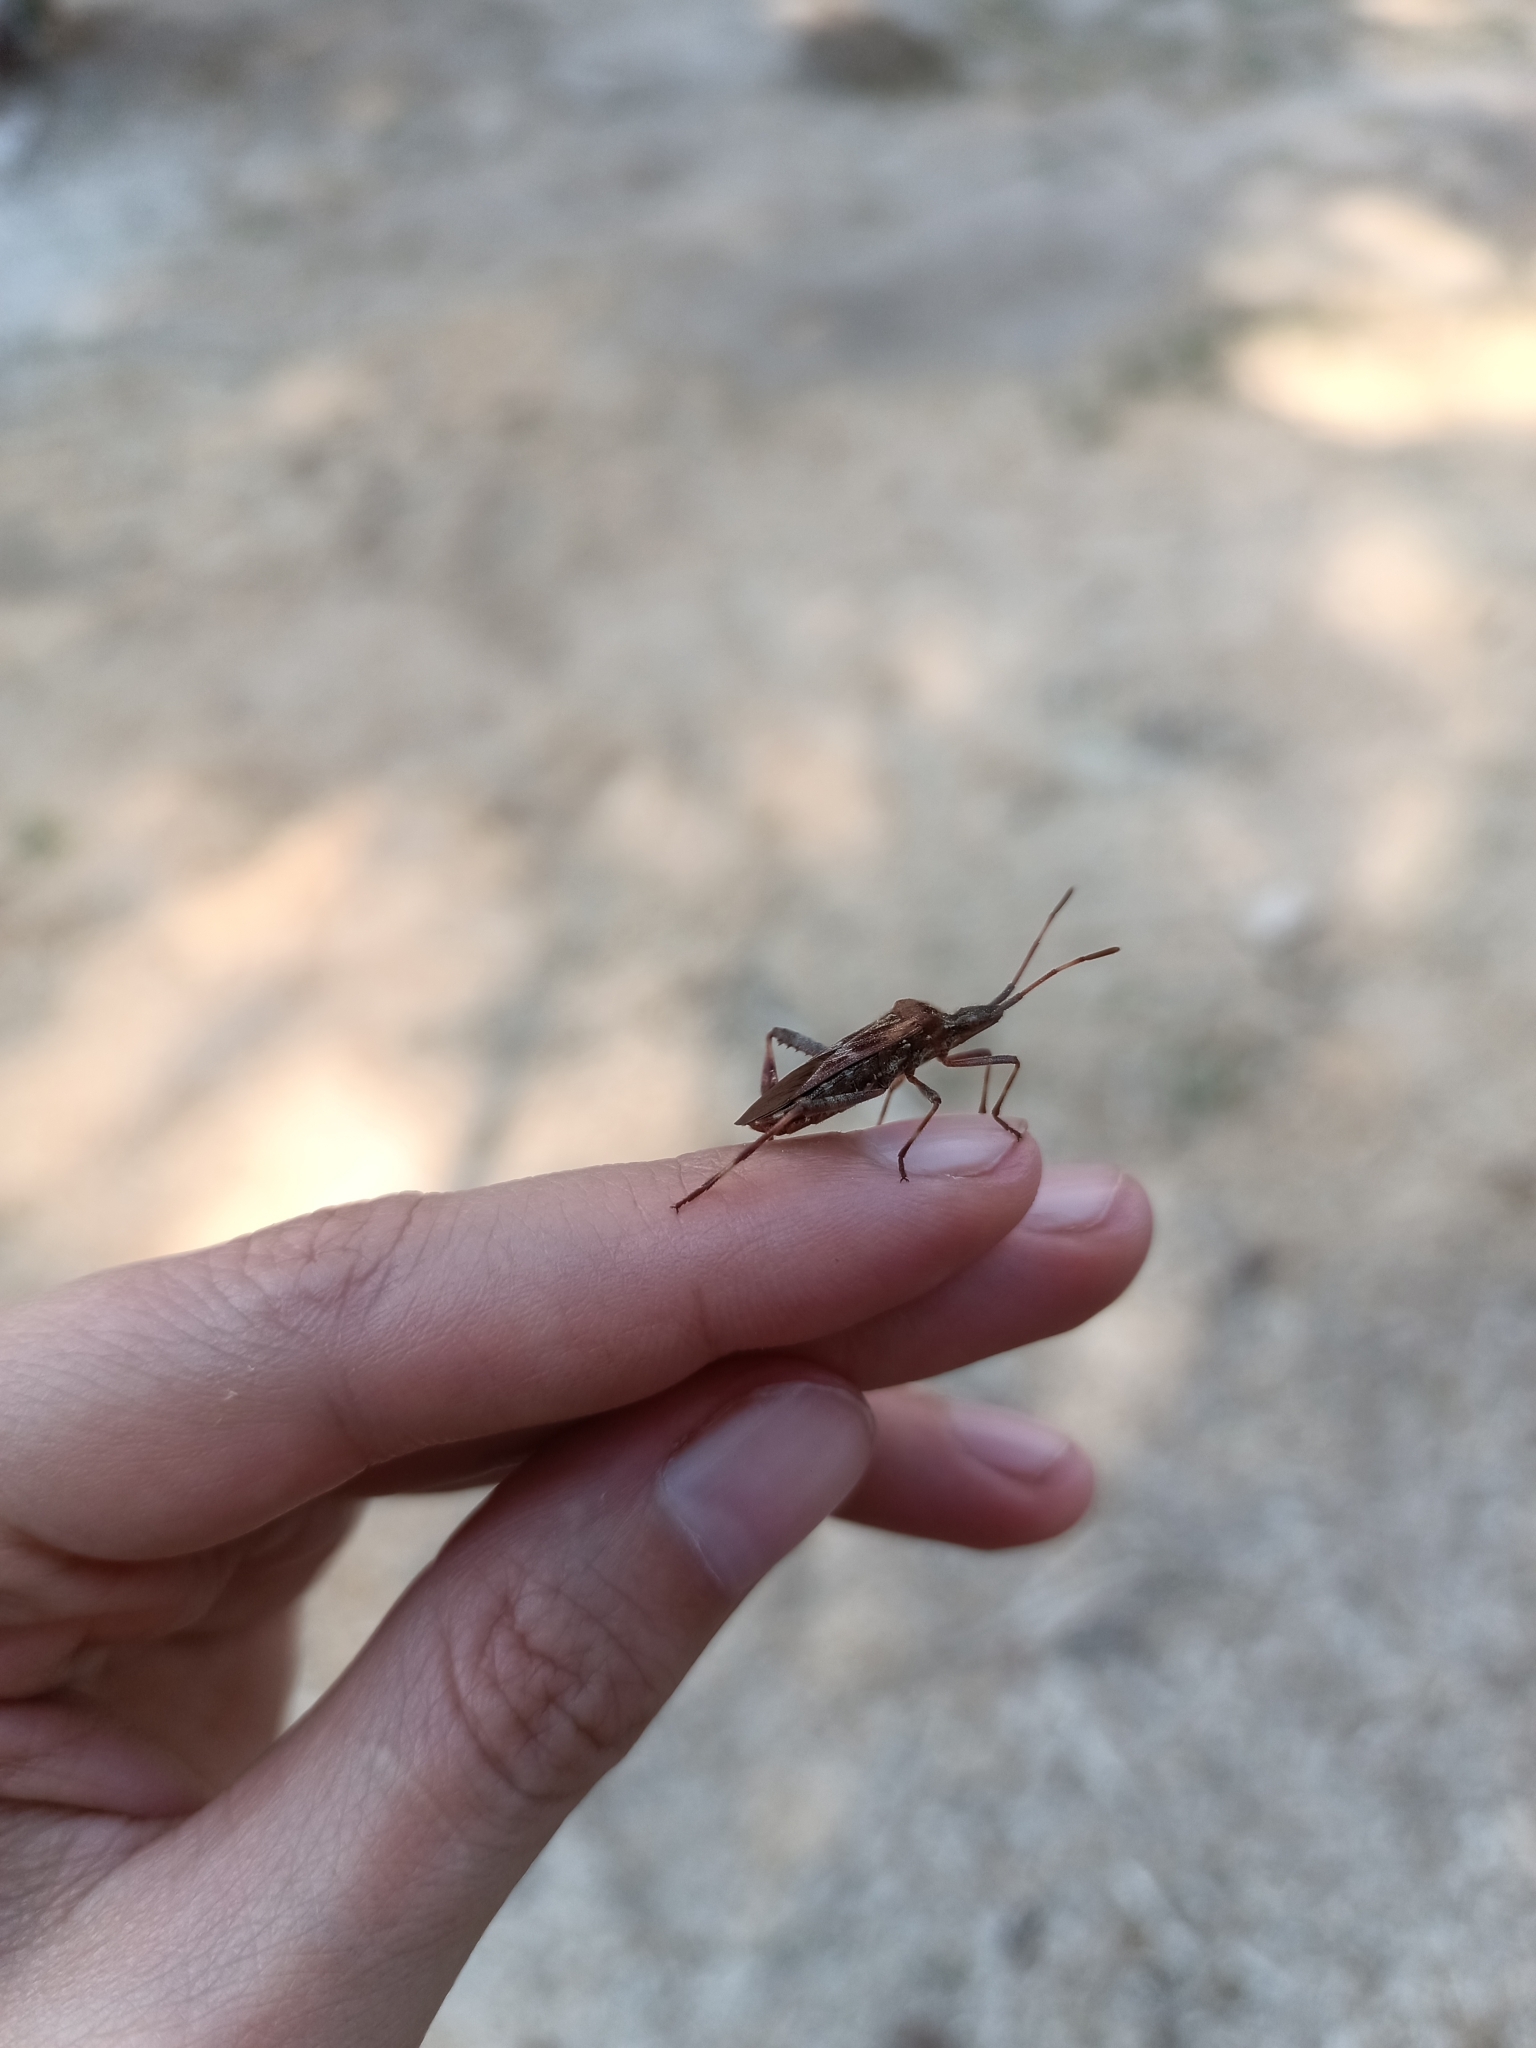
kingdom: Animalia
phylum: Arthropoda
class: Insecta
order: Hemiptera
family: Coreidae
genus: Leptoglossus
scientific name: Leptoglossus occidentalis
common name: Western conifer-seed bug
